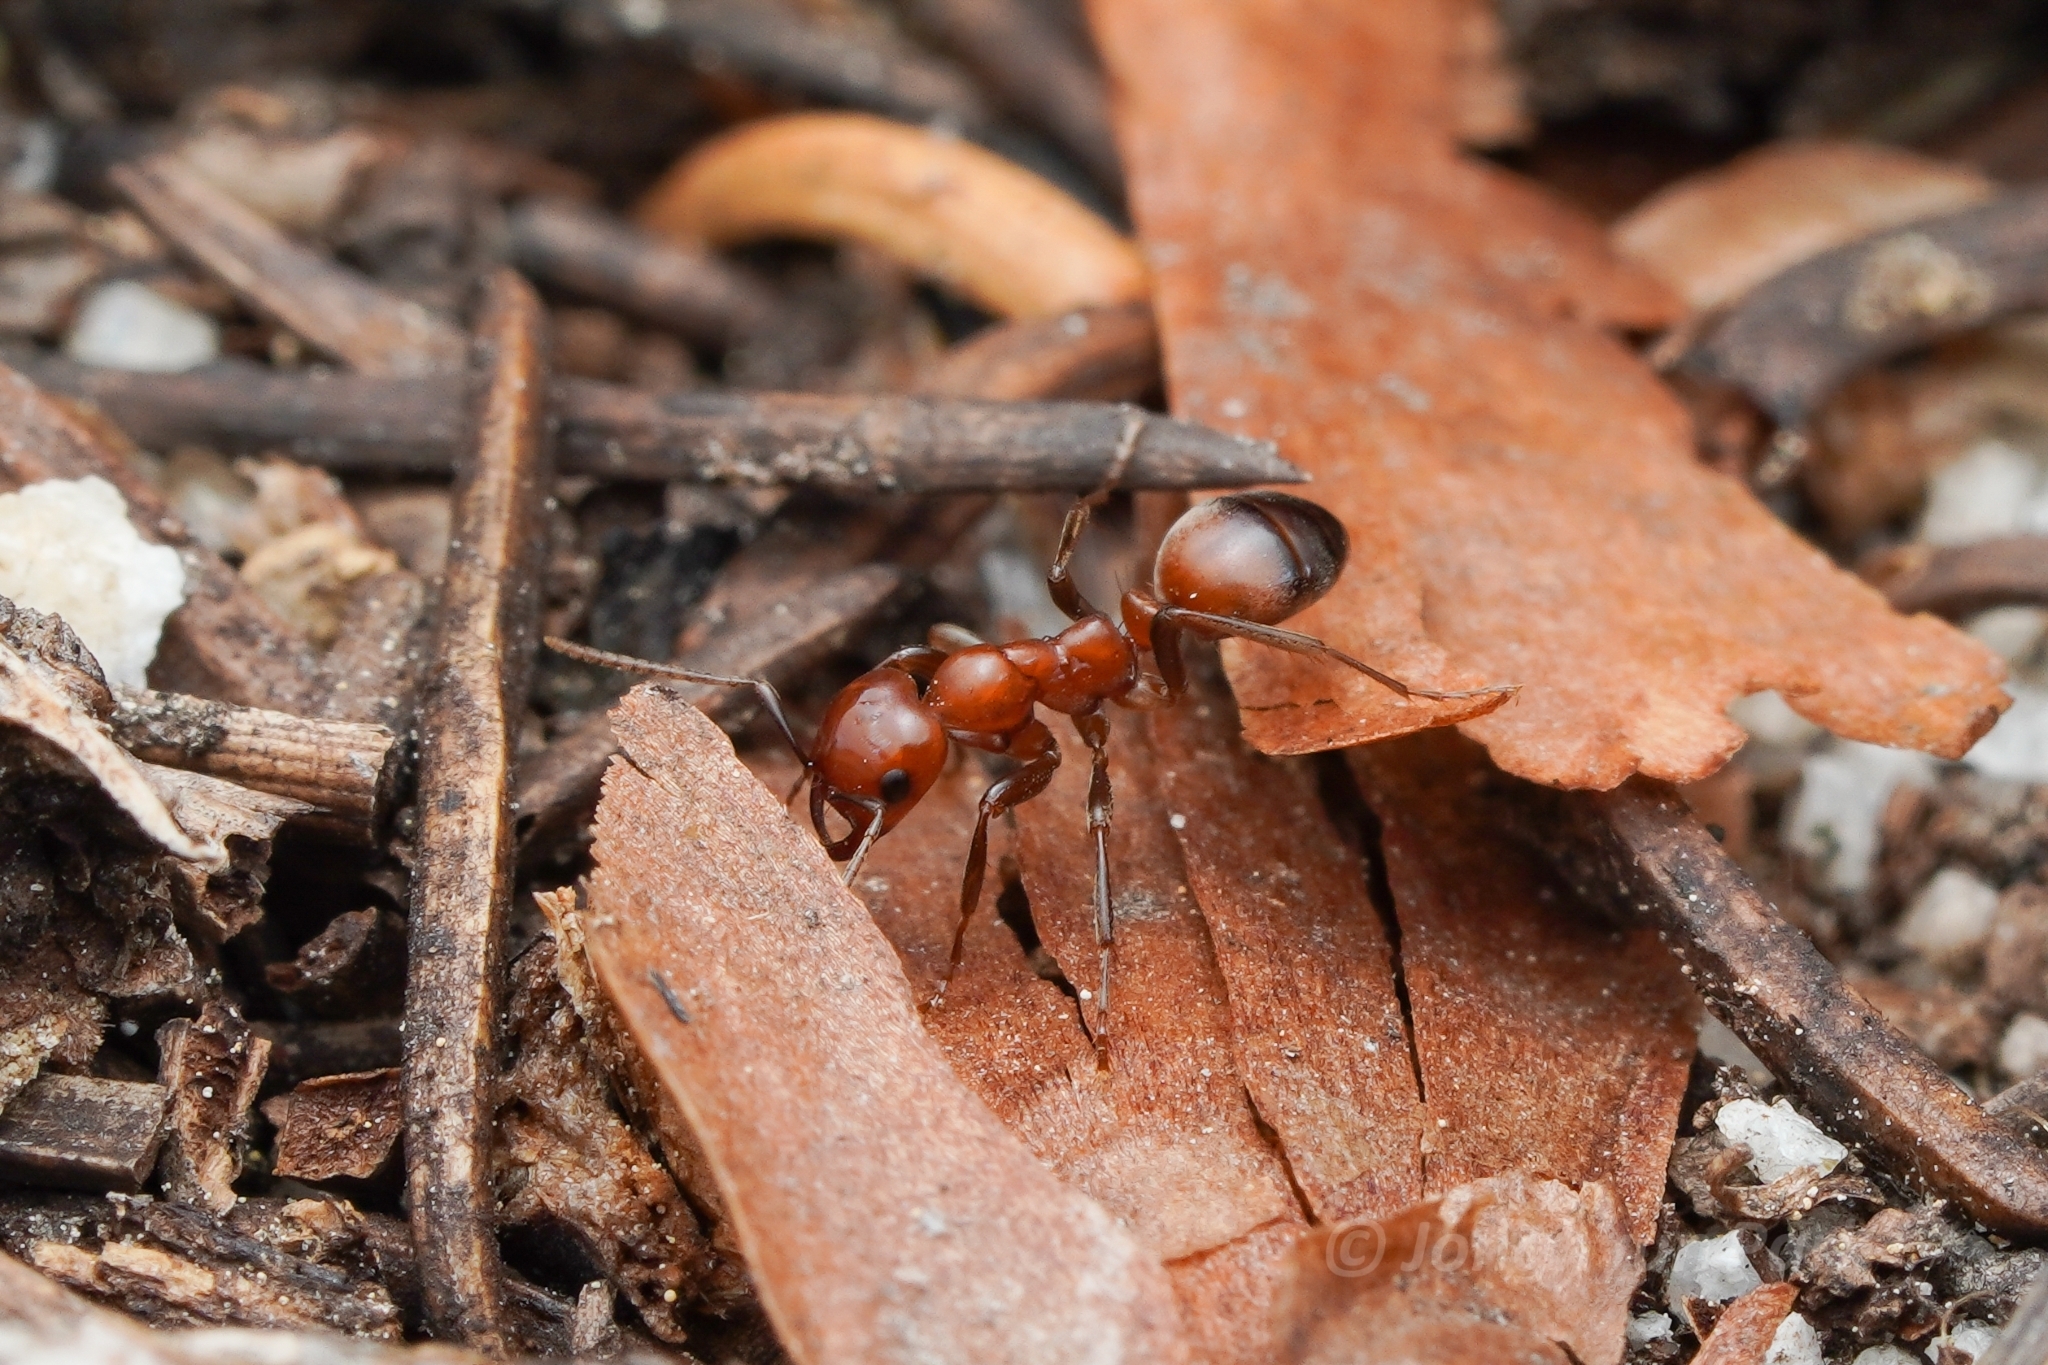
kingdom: Animalia
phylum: Arthropoda
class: Insecta
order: Hymenoptera
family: Formicidae
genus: Polyergus
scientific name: Polyergus mexicanus
